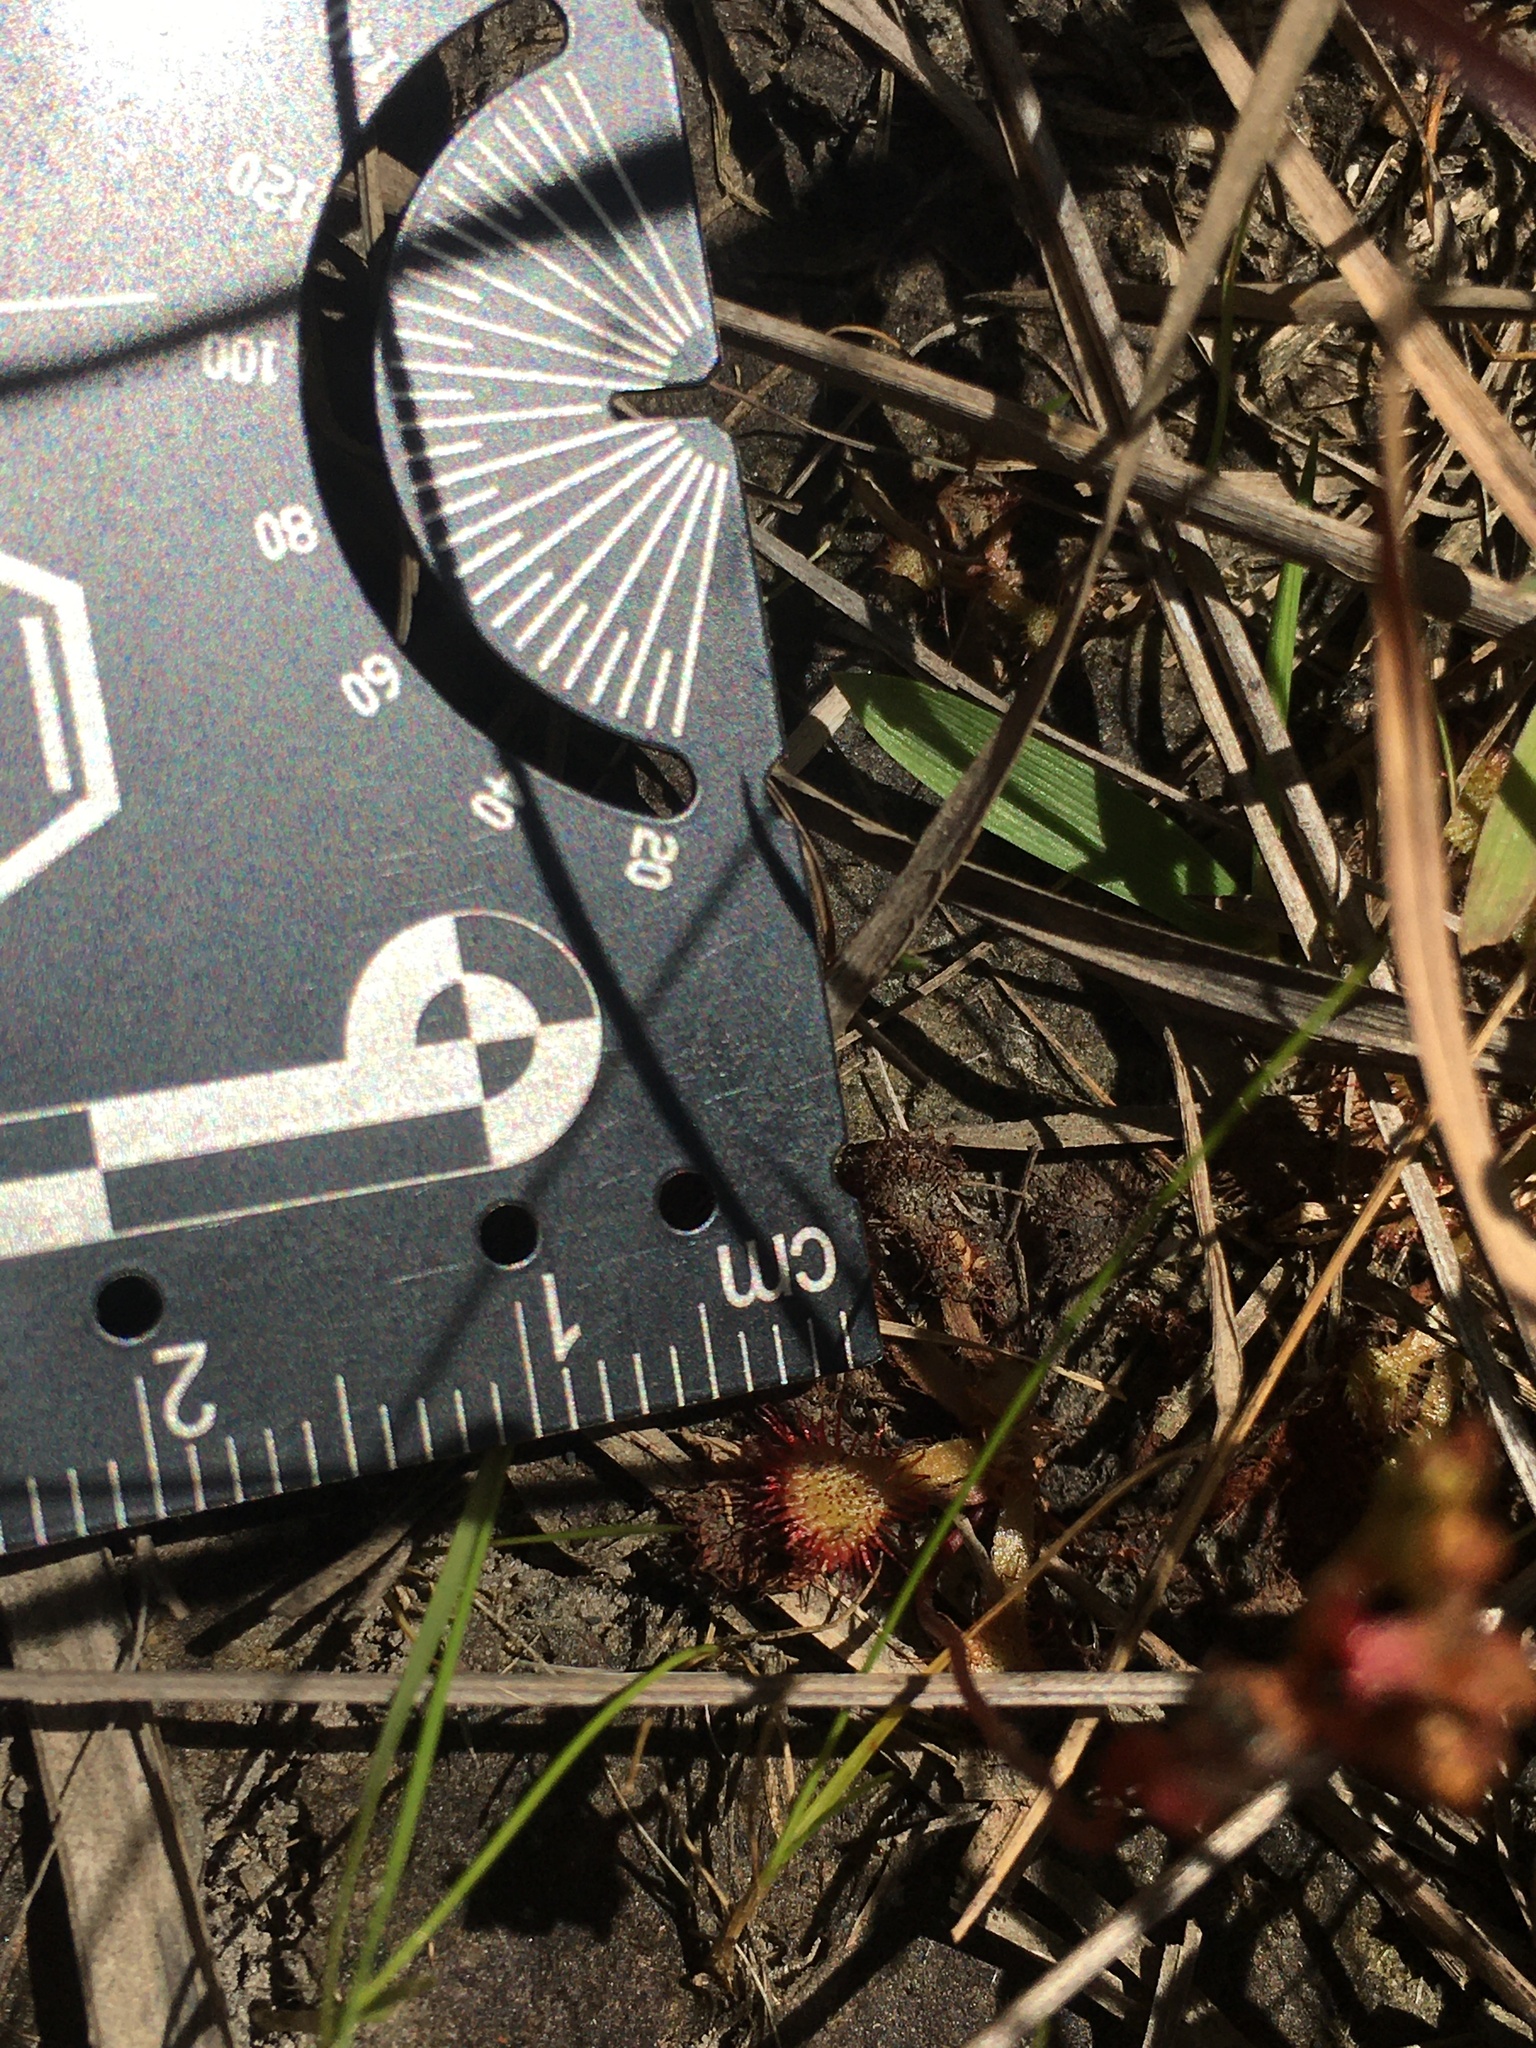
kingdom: Plantae
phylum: Tracheophyta
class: Magnoliopsida
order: Caryophyllales
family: Droseraceae
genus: Drosera
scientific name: Drosera capillaris
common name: Pink sundew
